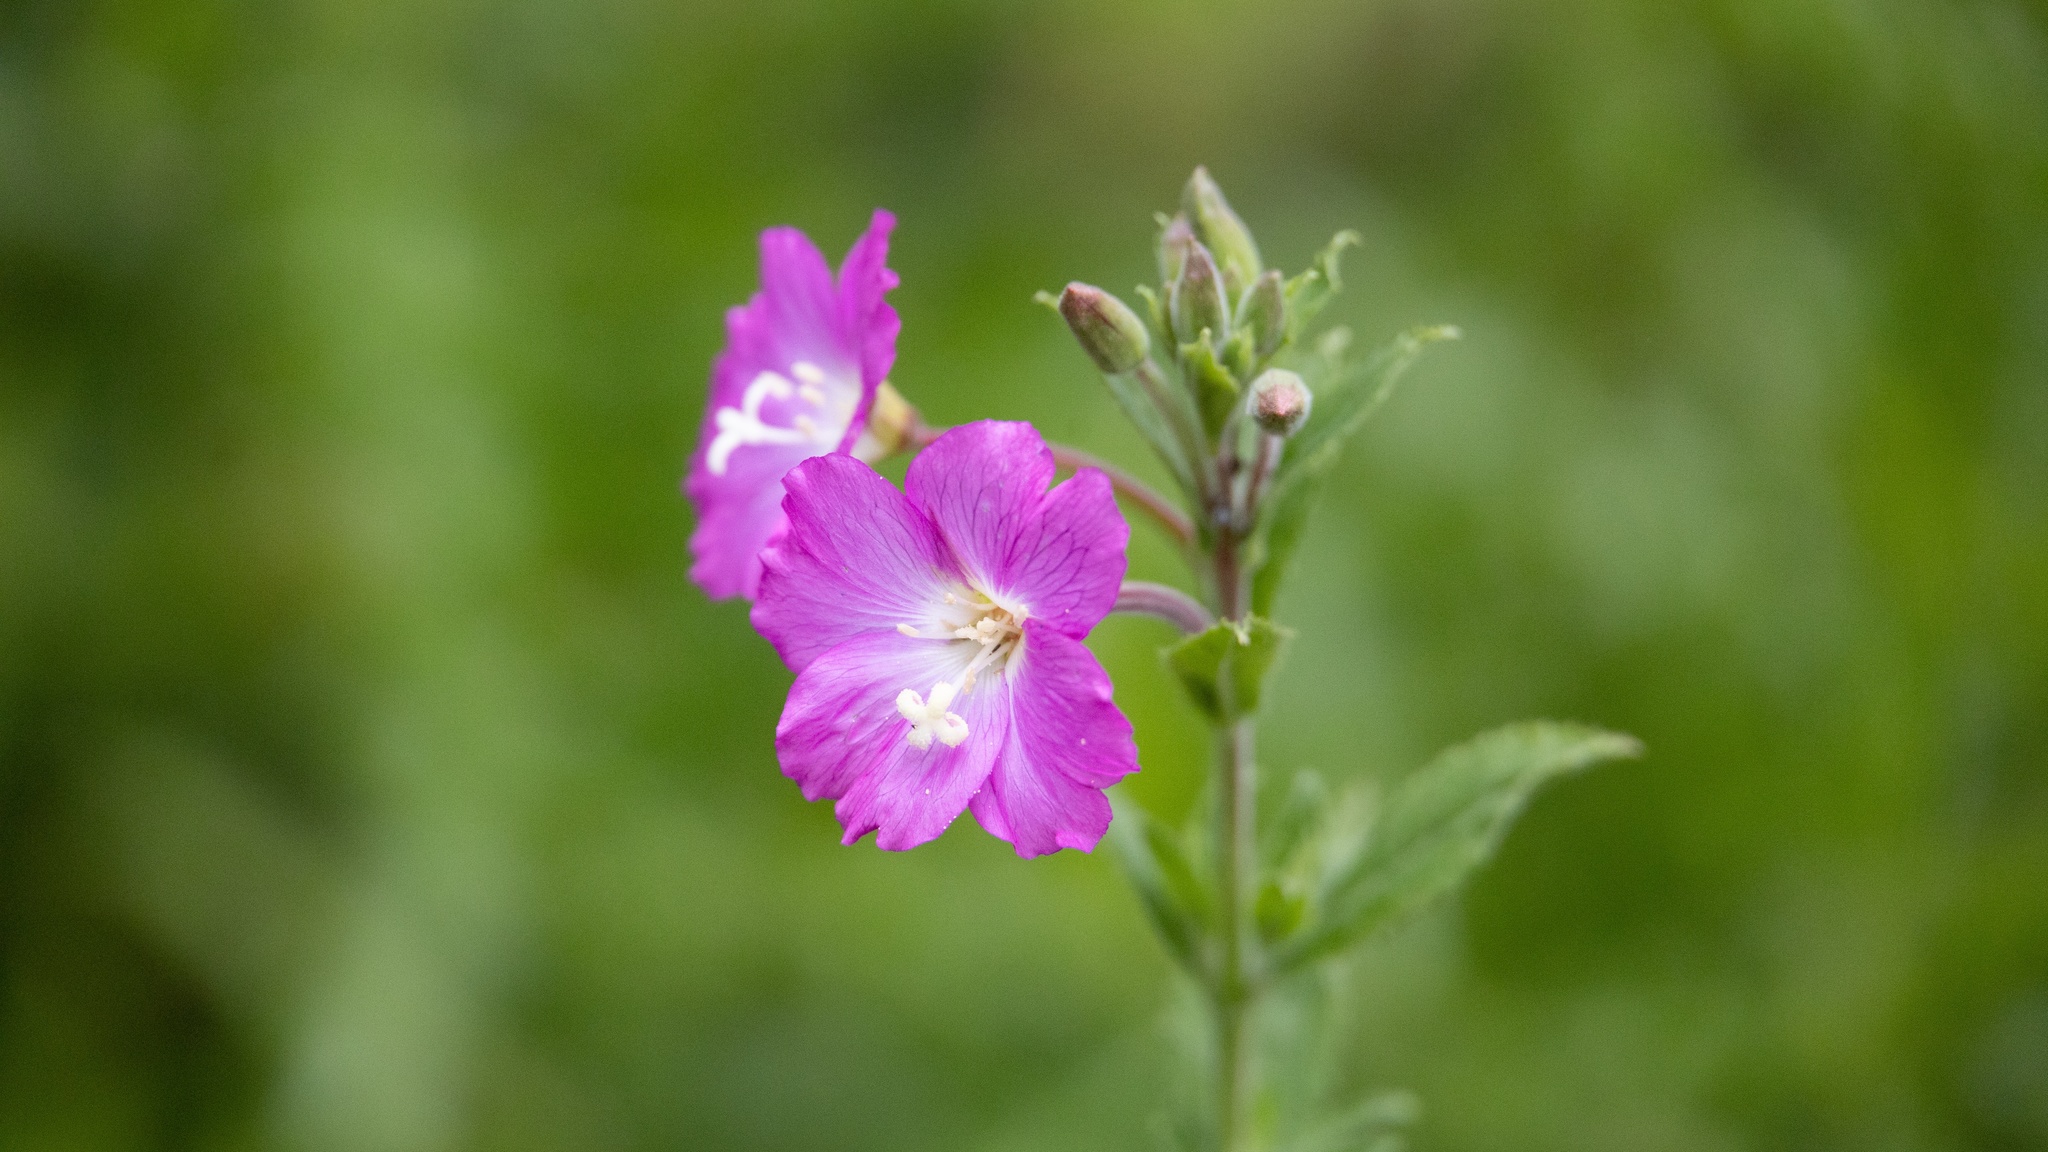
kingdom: Plantae
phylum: Tracheophyta
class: Magnoliopsida
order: Myrtales
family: Onagraceae
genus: Epilobium
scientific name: Epilobium hirsutum
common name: Great willowherb
